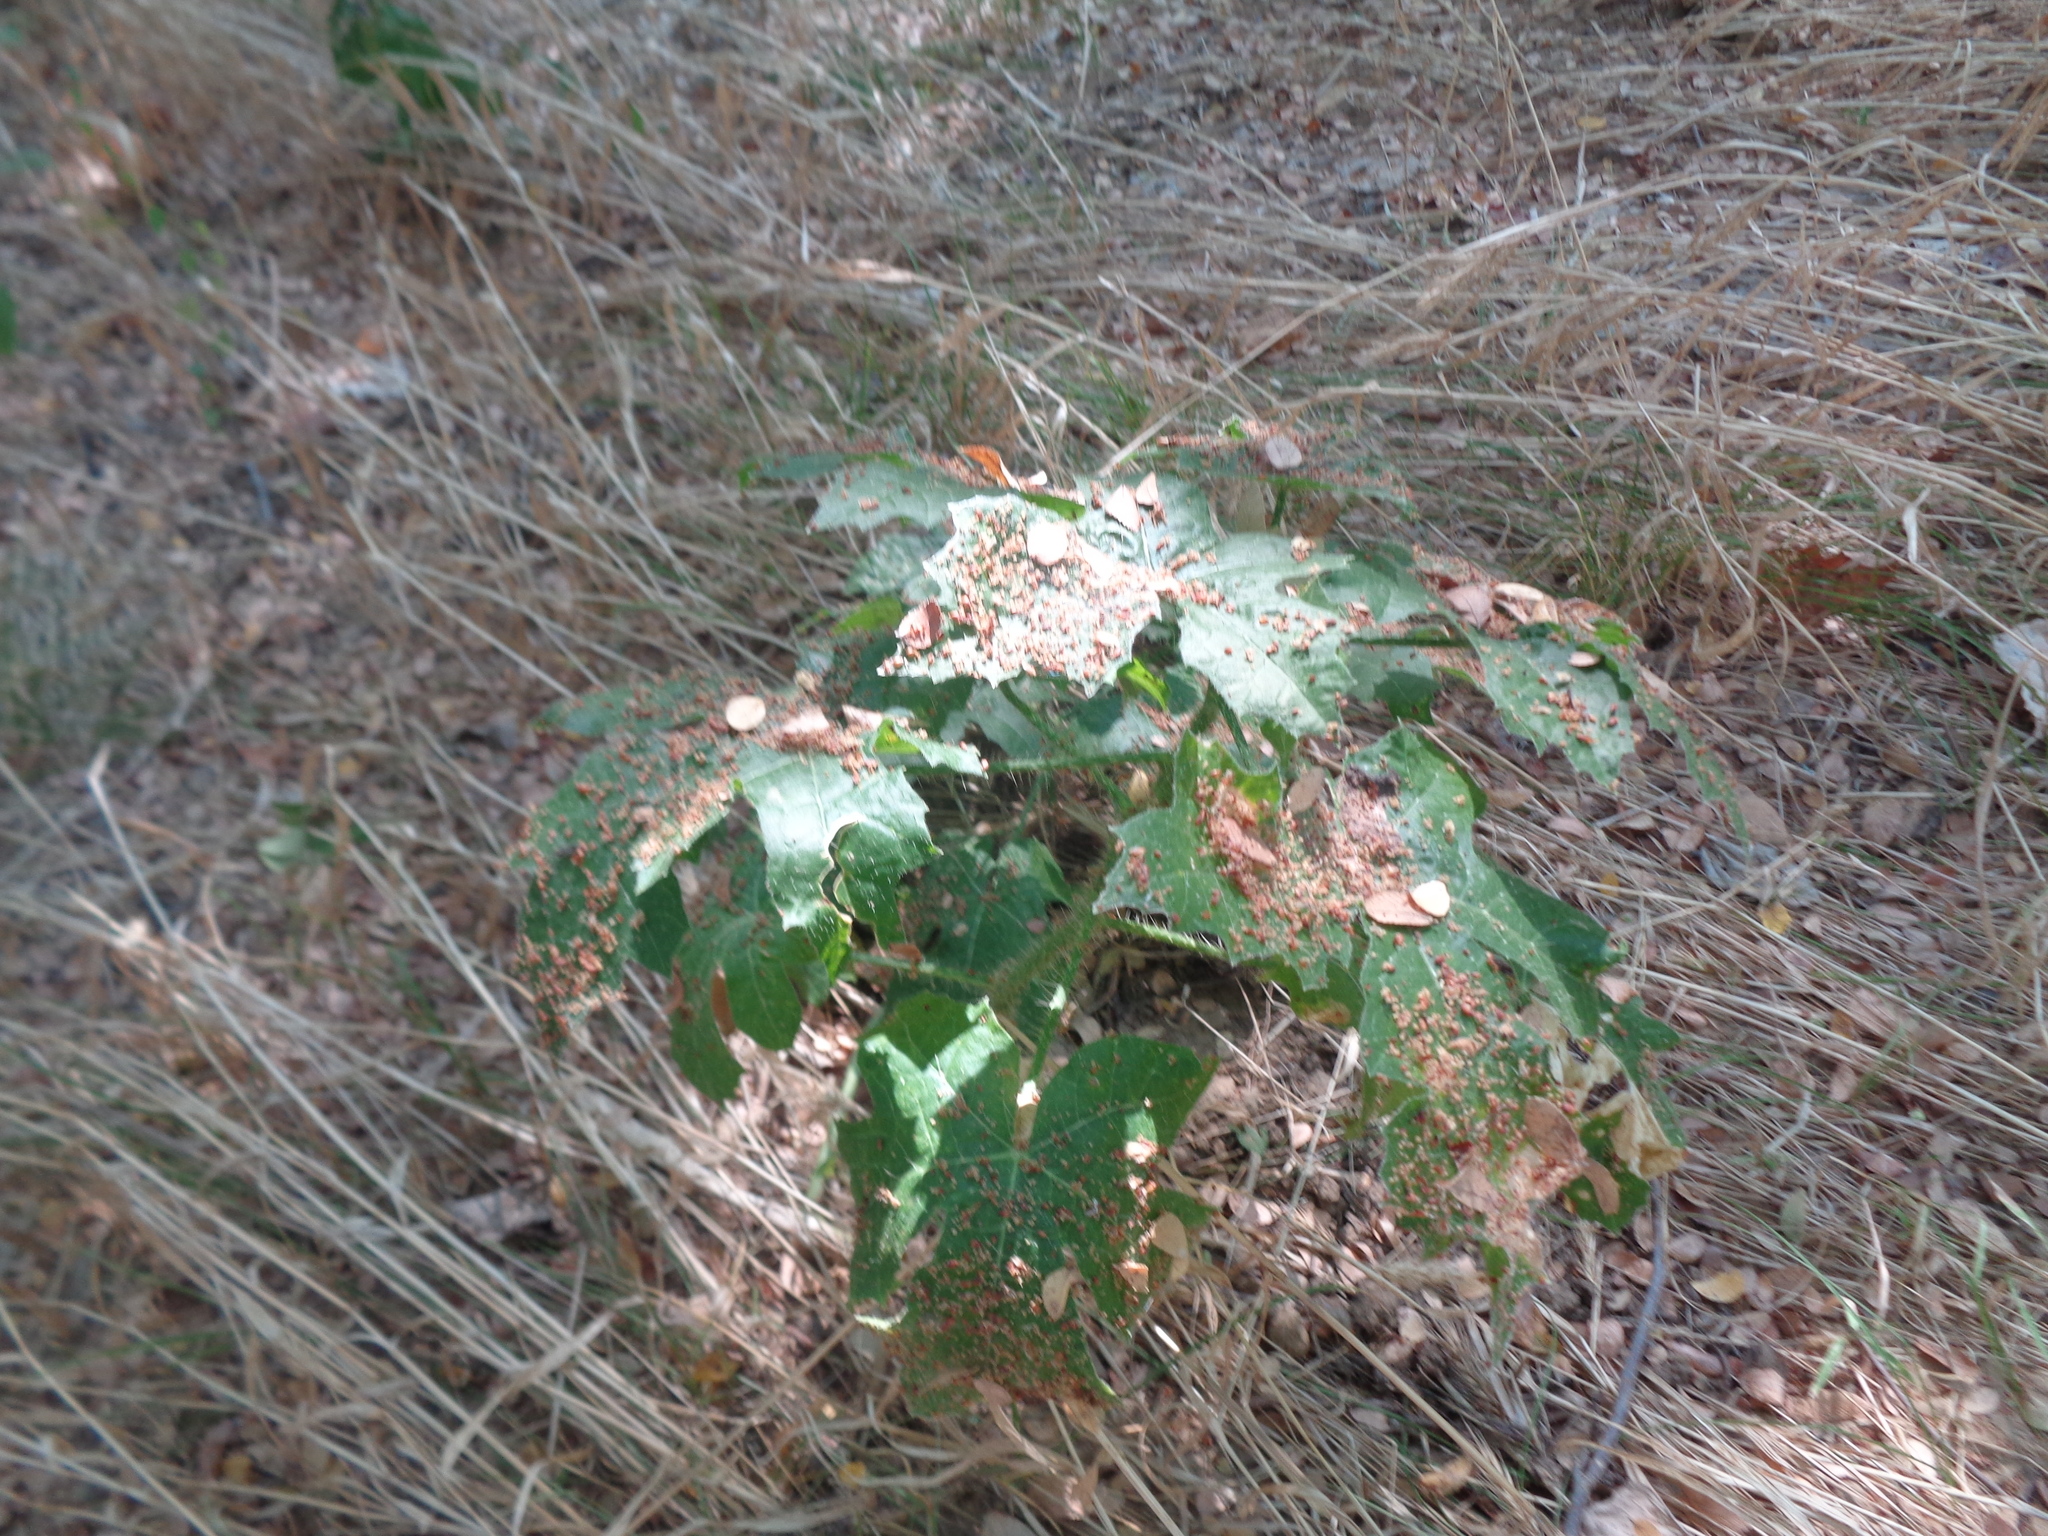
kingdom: Plantae
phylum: Tracheophyta
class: Magnoliopsida
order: Malpighiales
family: Euphorbiaceae
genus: Cnidoscolus
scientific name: Cnidoscolus texanus
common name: Texas bull-nettle
